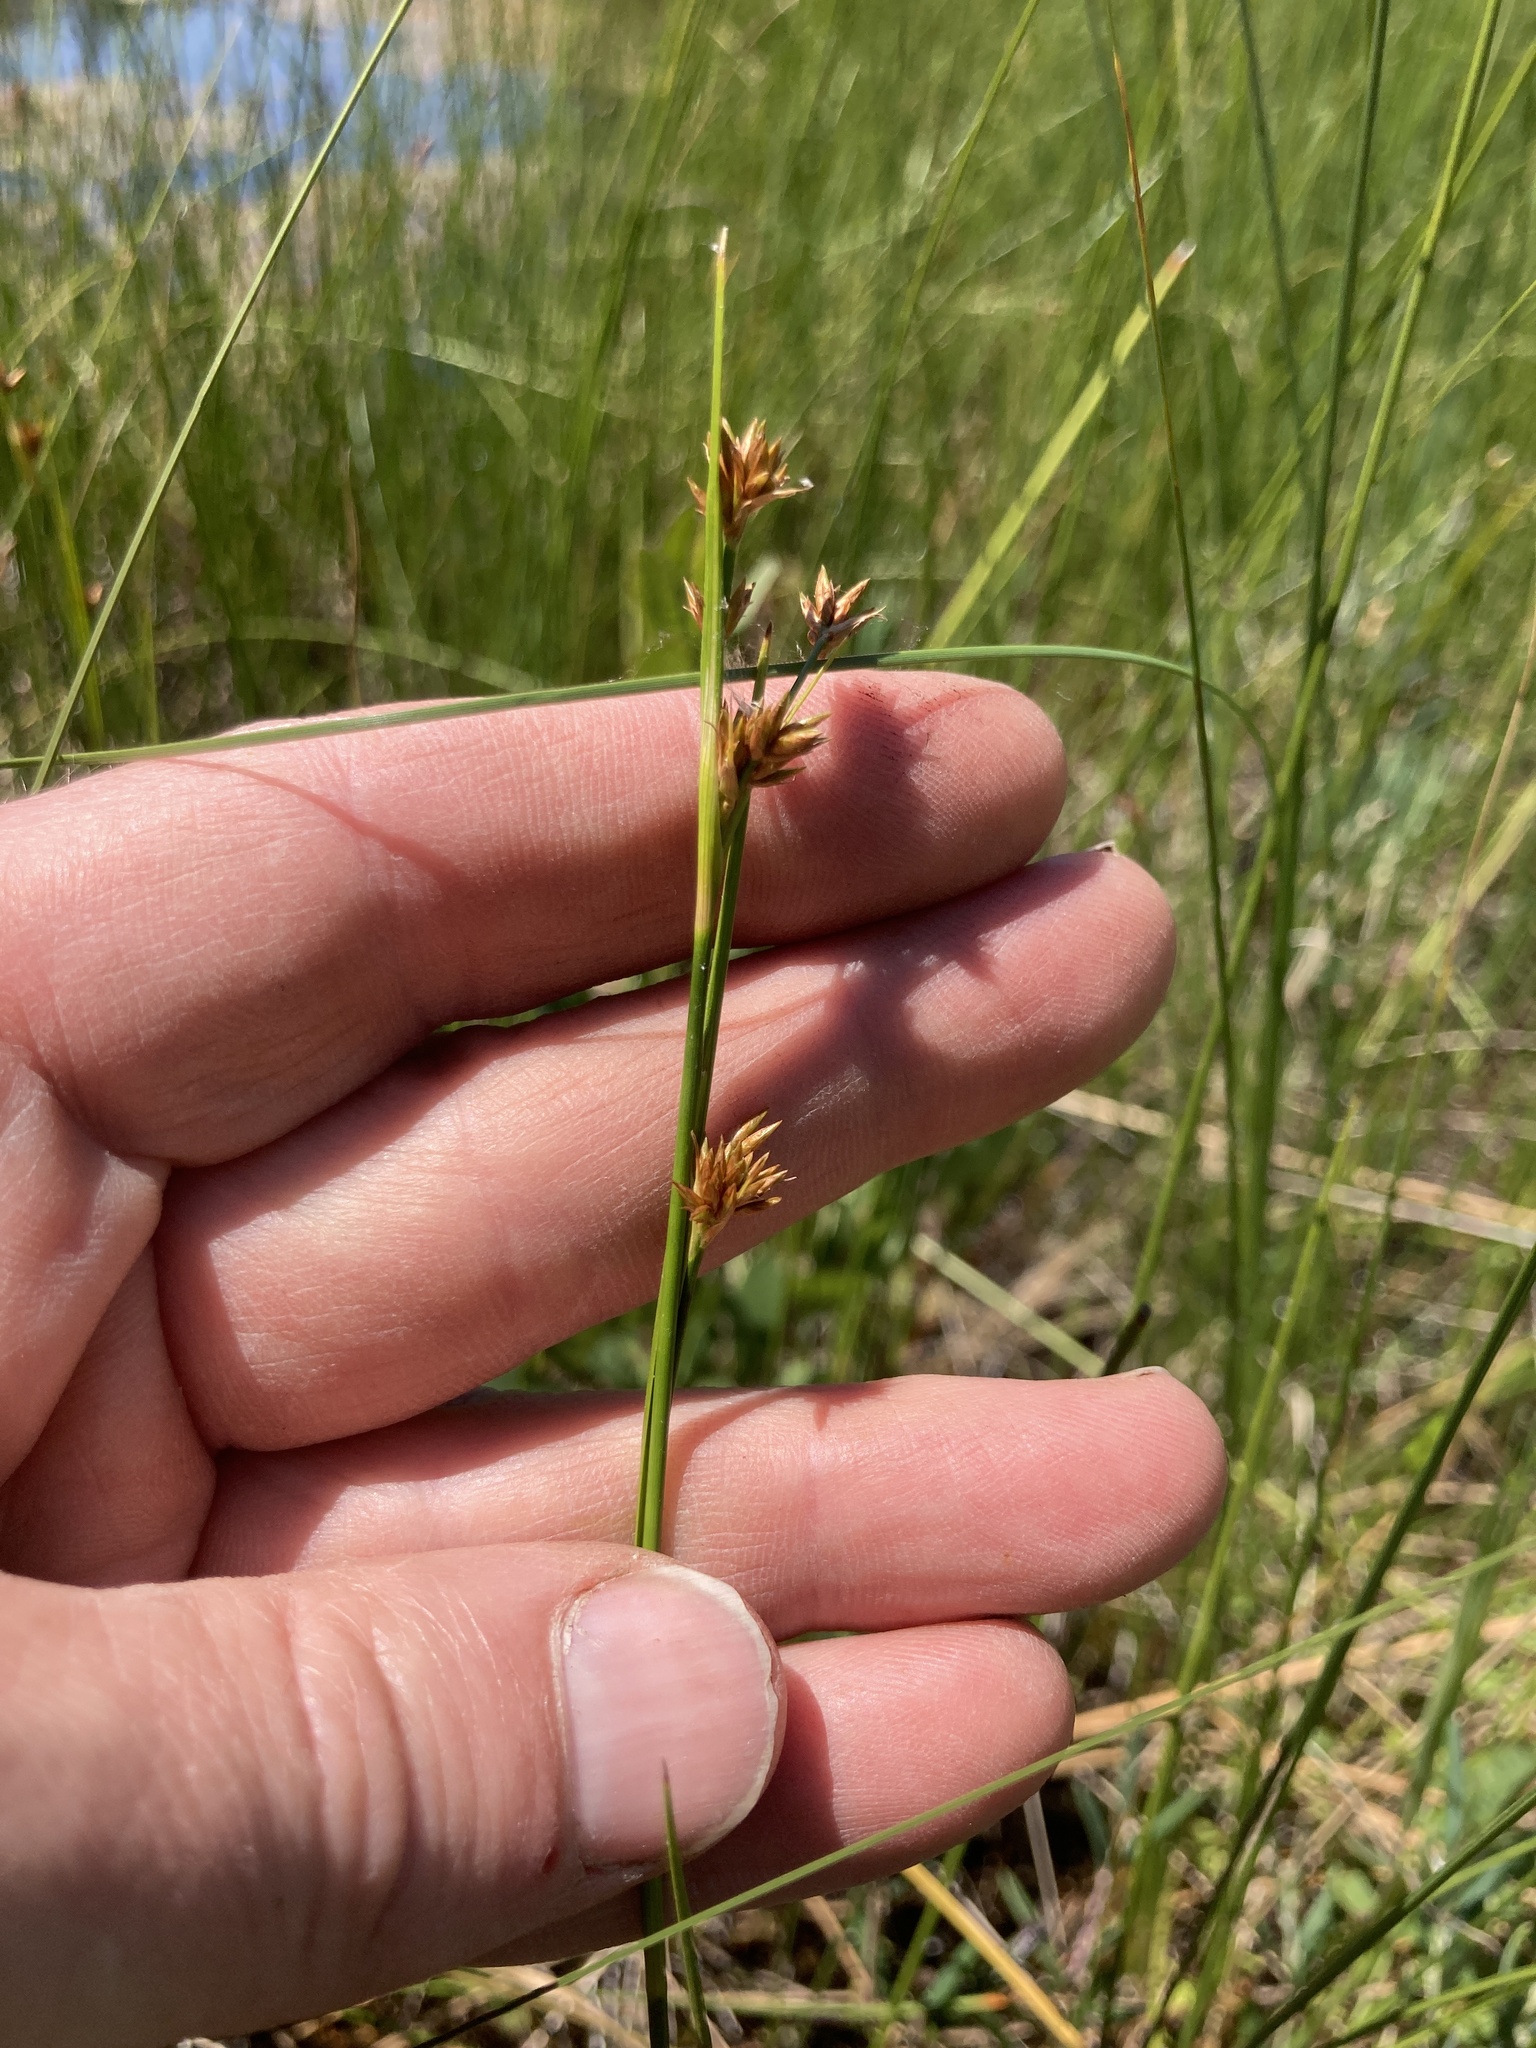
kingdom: Plantae
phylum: Tracheophyta
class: Liliopsida
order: Poales
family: Cyperaceae
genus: Cladium
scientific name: Cladium mariscoides
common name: Smooth sawgrass
